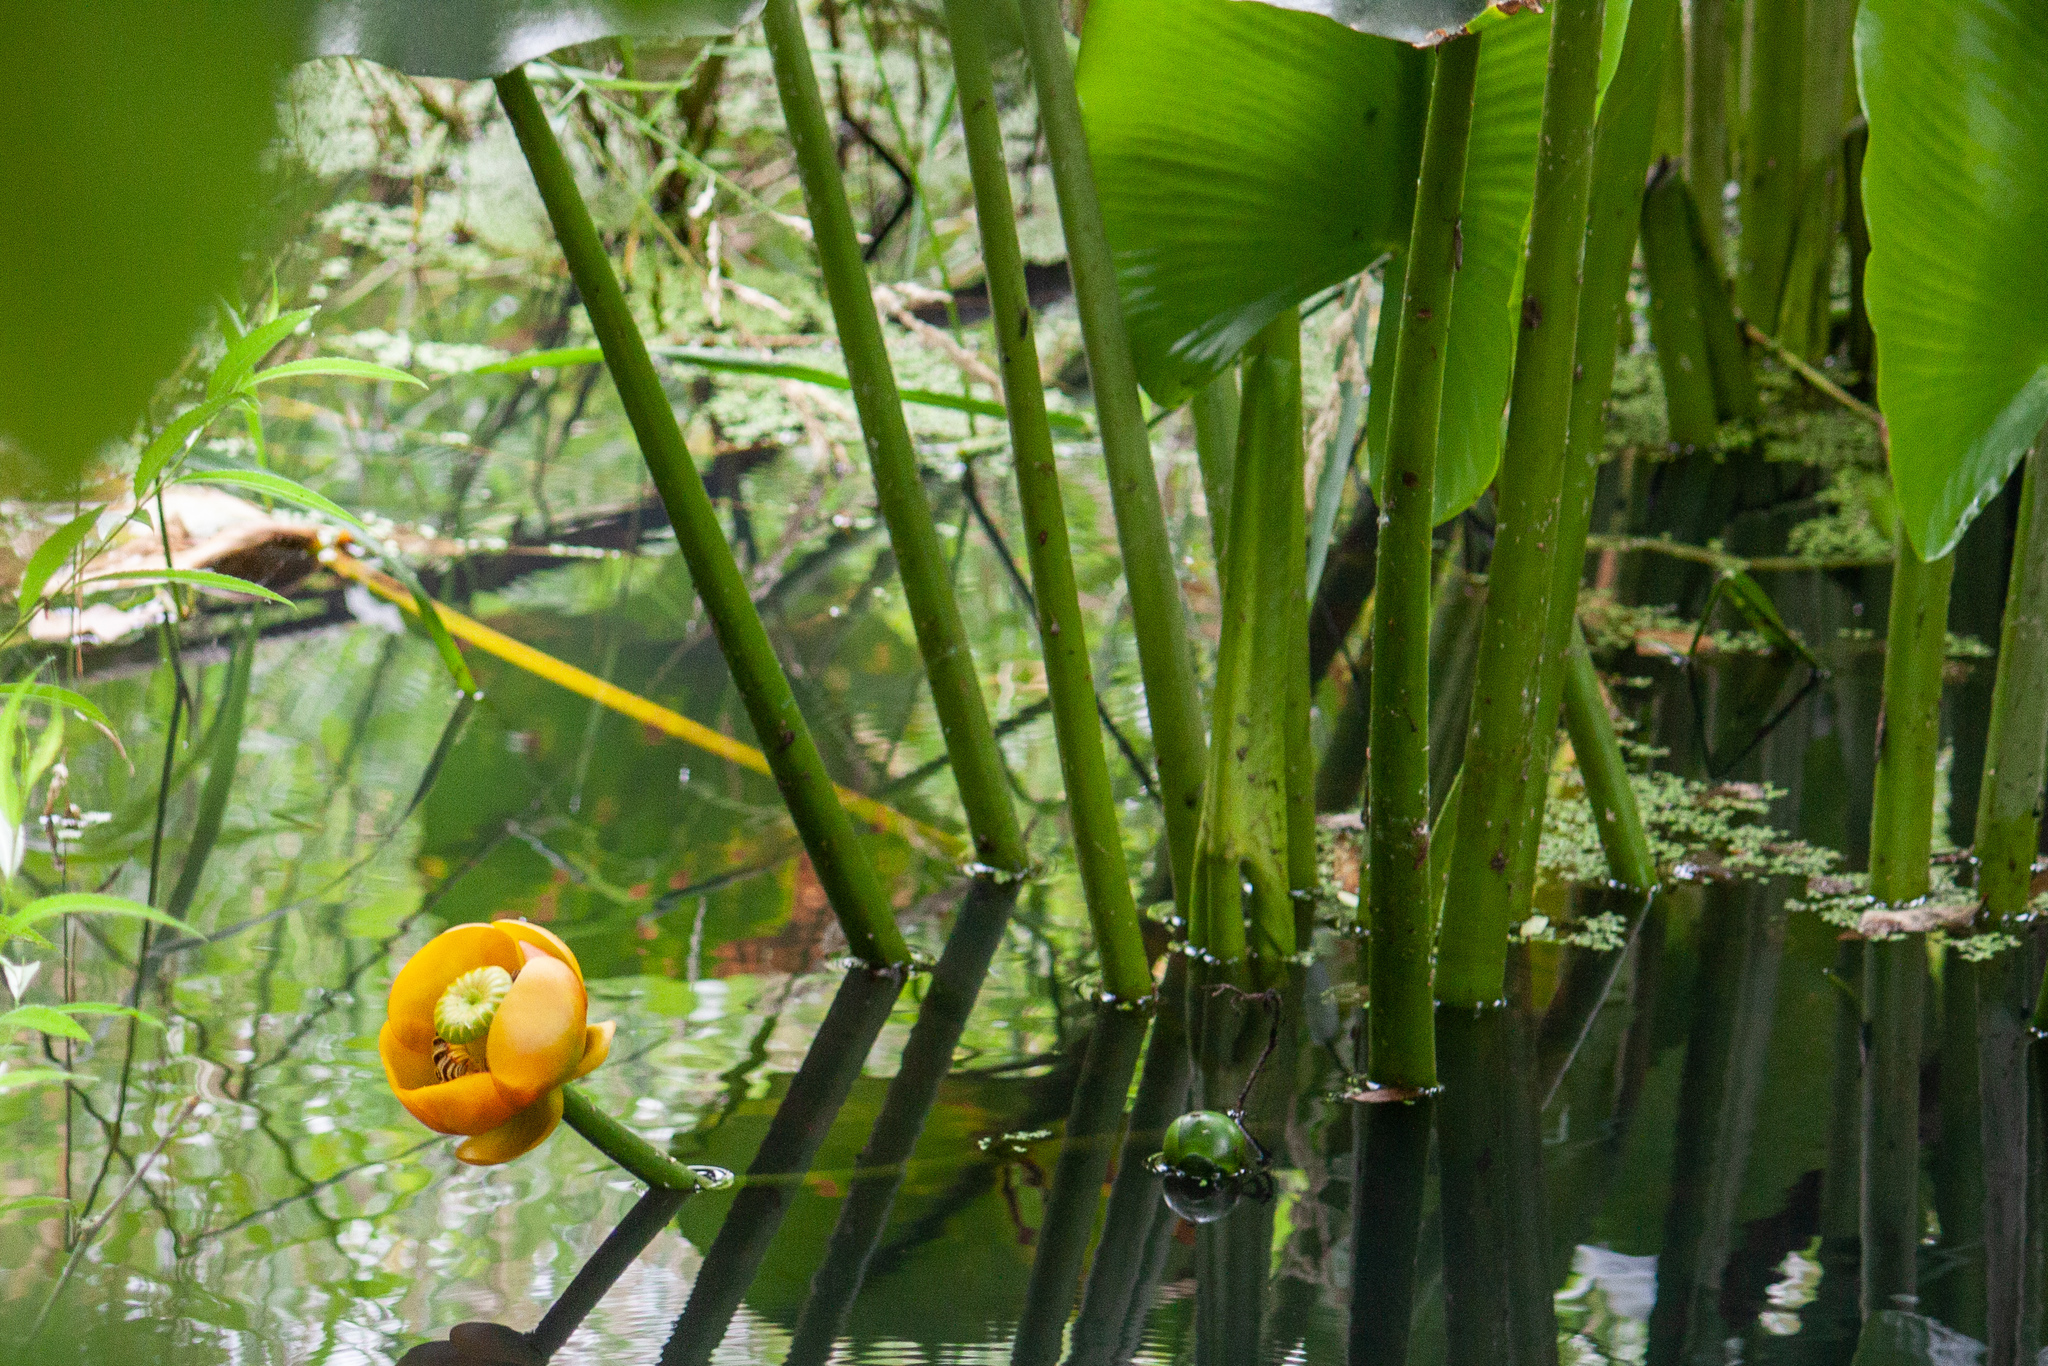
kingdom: Plantae
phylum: Tracheophyta
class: Magnoliopsida
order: Nymphaeales
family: Nymphaeaceae
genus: Nuphar
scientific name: Nuphar polysepala
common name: Rocky mountain cow-lily
